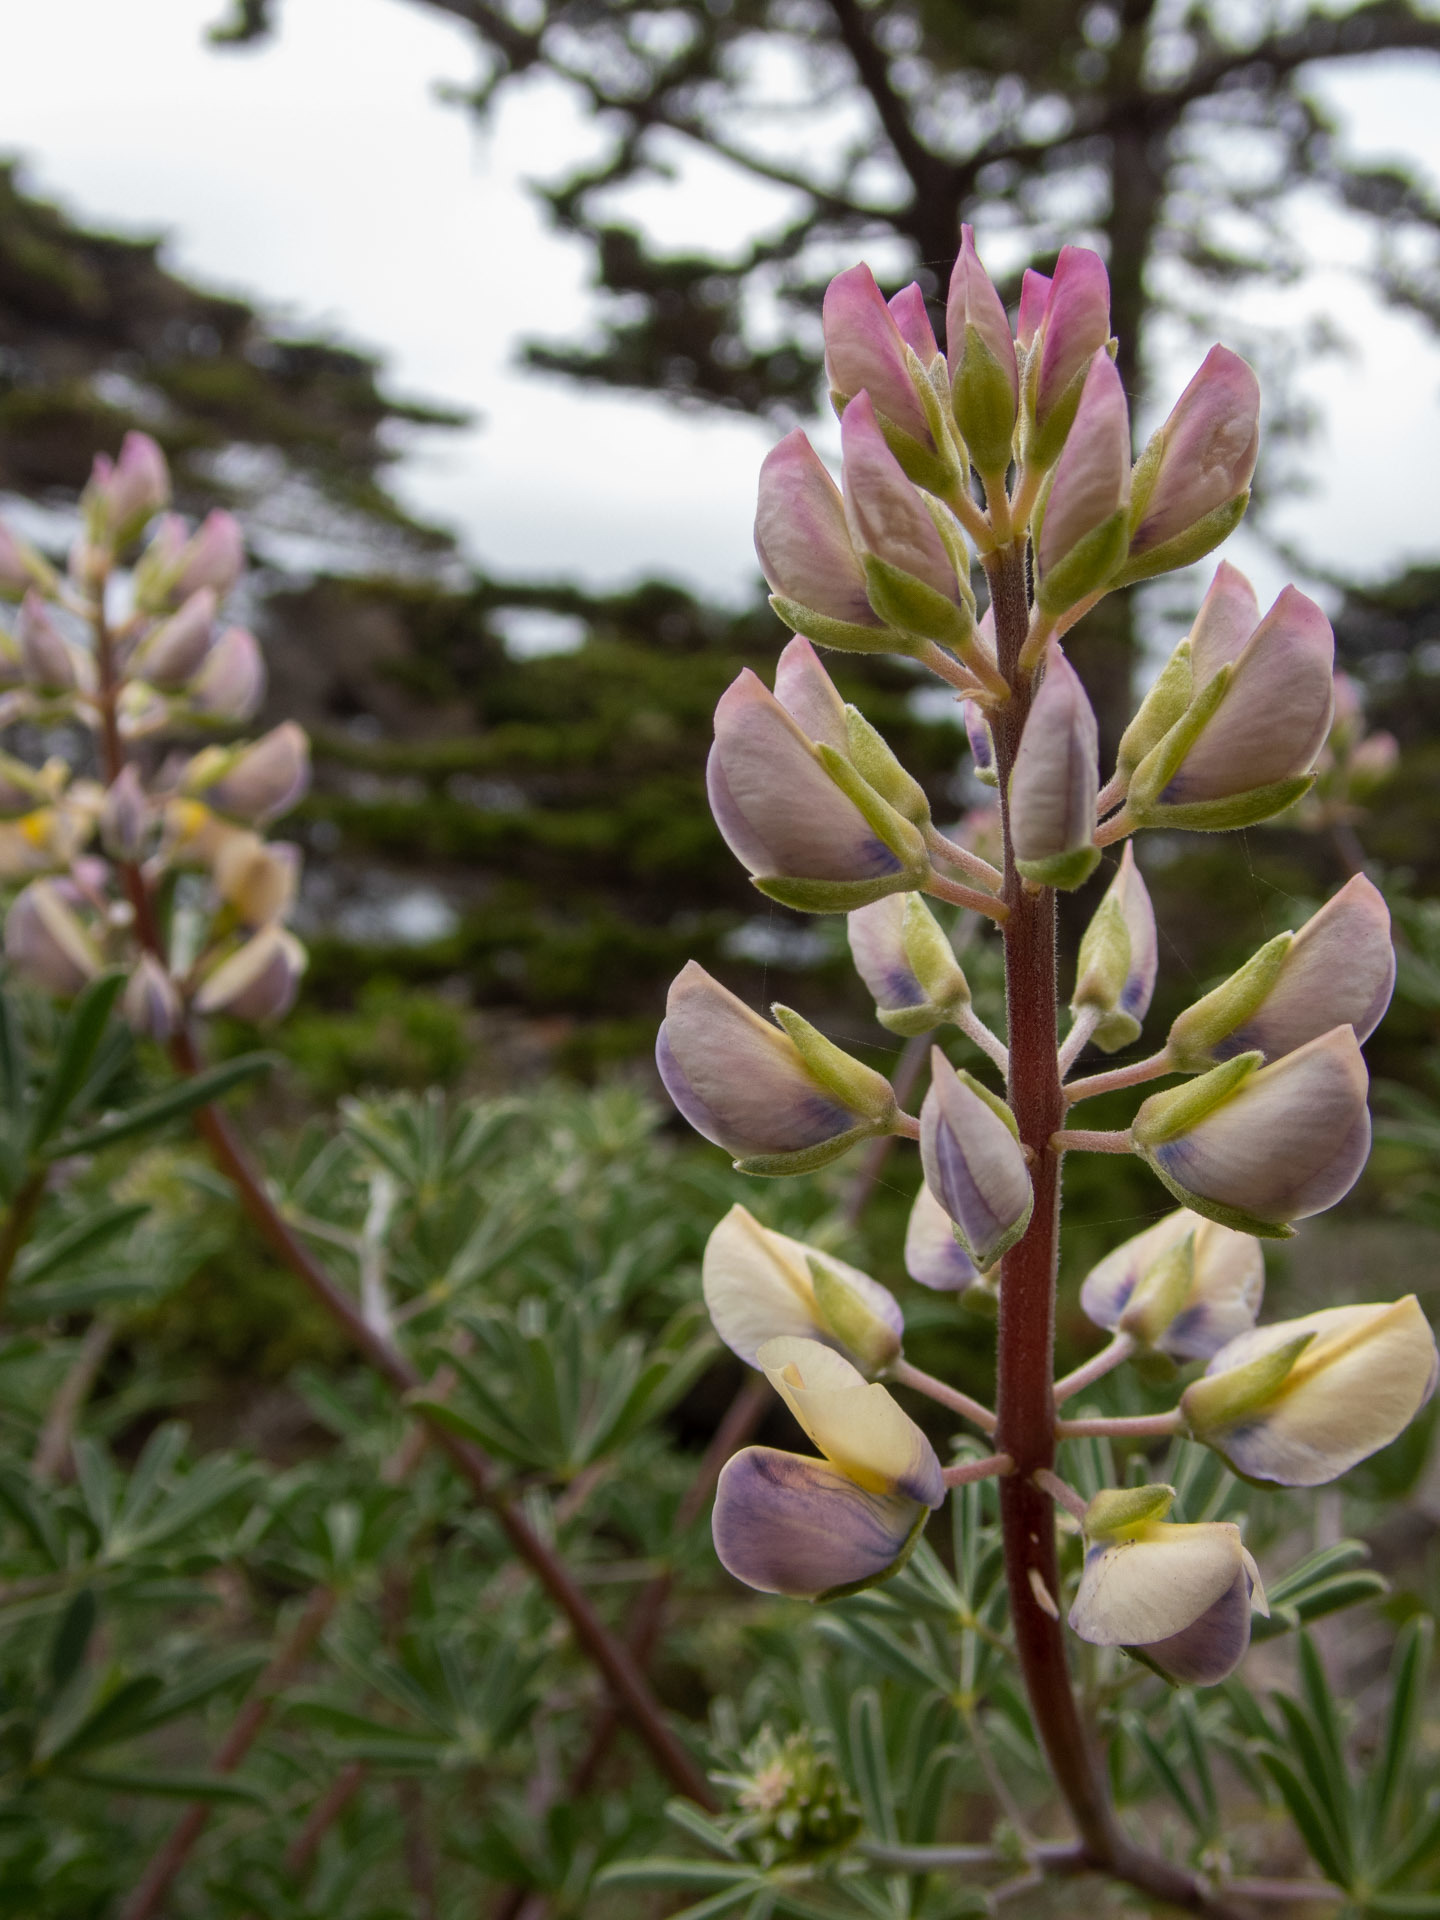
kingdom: Plantae
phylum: Tracheophyta
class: Magnoliopsida
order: Fabales
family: Fabaceae
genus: Lupinus
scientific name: Lupinus arboreus
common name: Yellow bush lupine
